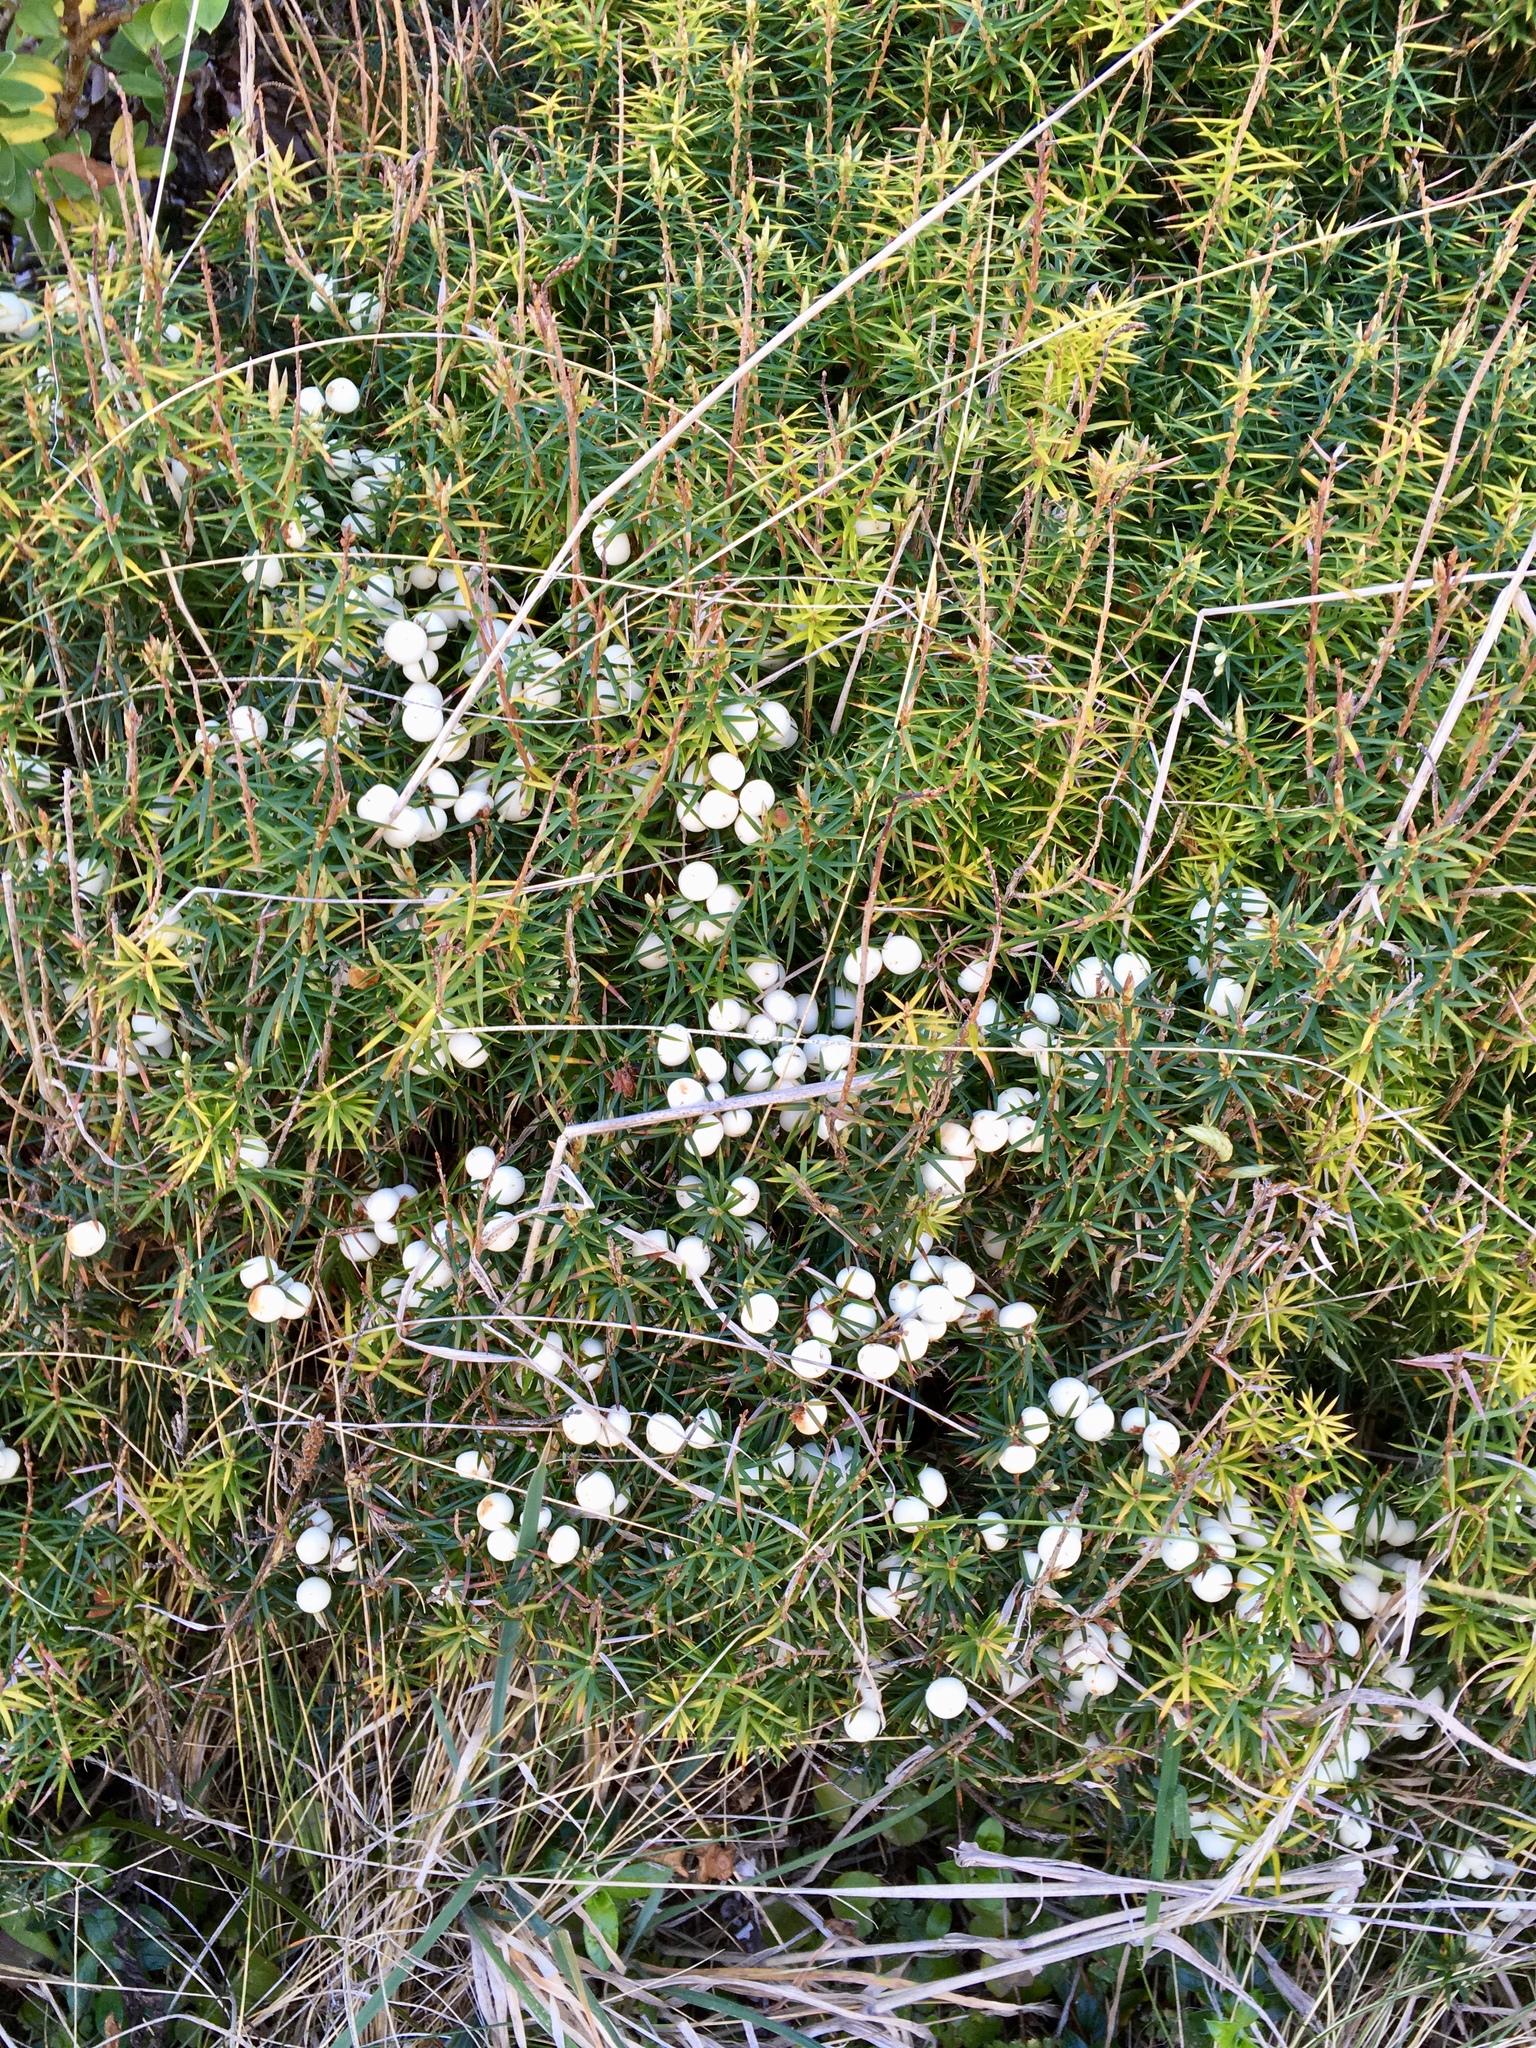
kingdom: Plantae
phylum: Tracheophyta
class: Magnoliopsida
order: Ericales
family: Ericaceae
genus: Leptecophylla
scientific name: Leptecophylla juniperina
